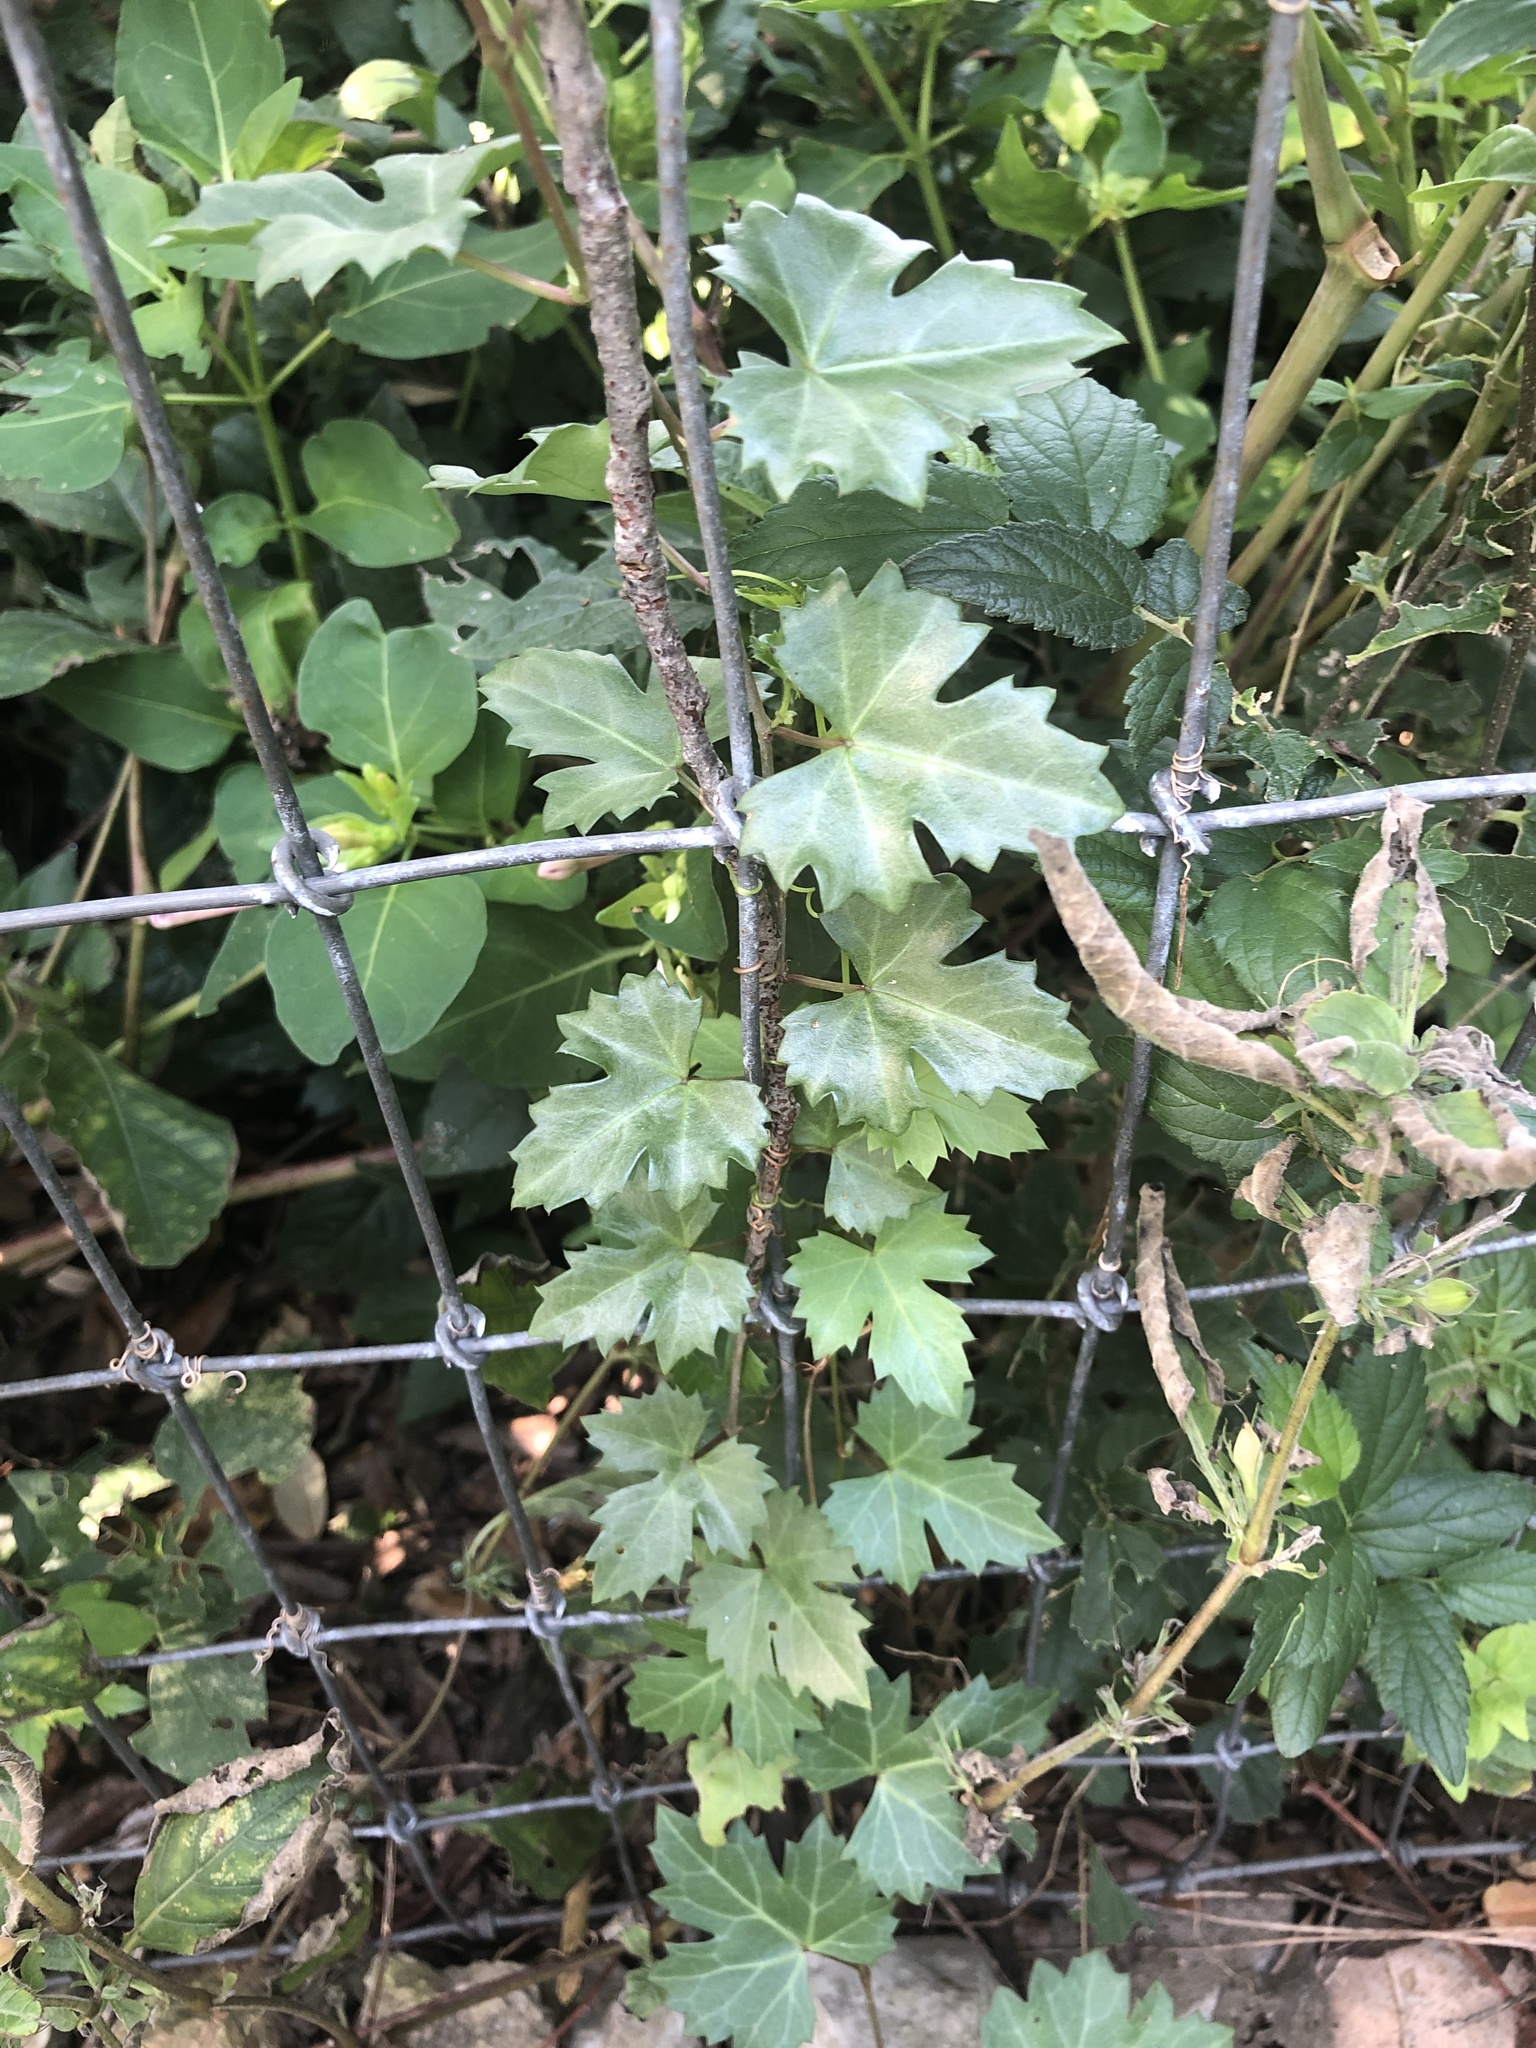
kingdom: Plantae
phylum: Tracheophyta
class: Magnoliopsida
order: Vitales
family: Vitaceae
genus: Cissus
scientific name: Cissus trifoliata
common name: Vine-sorrel
